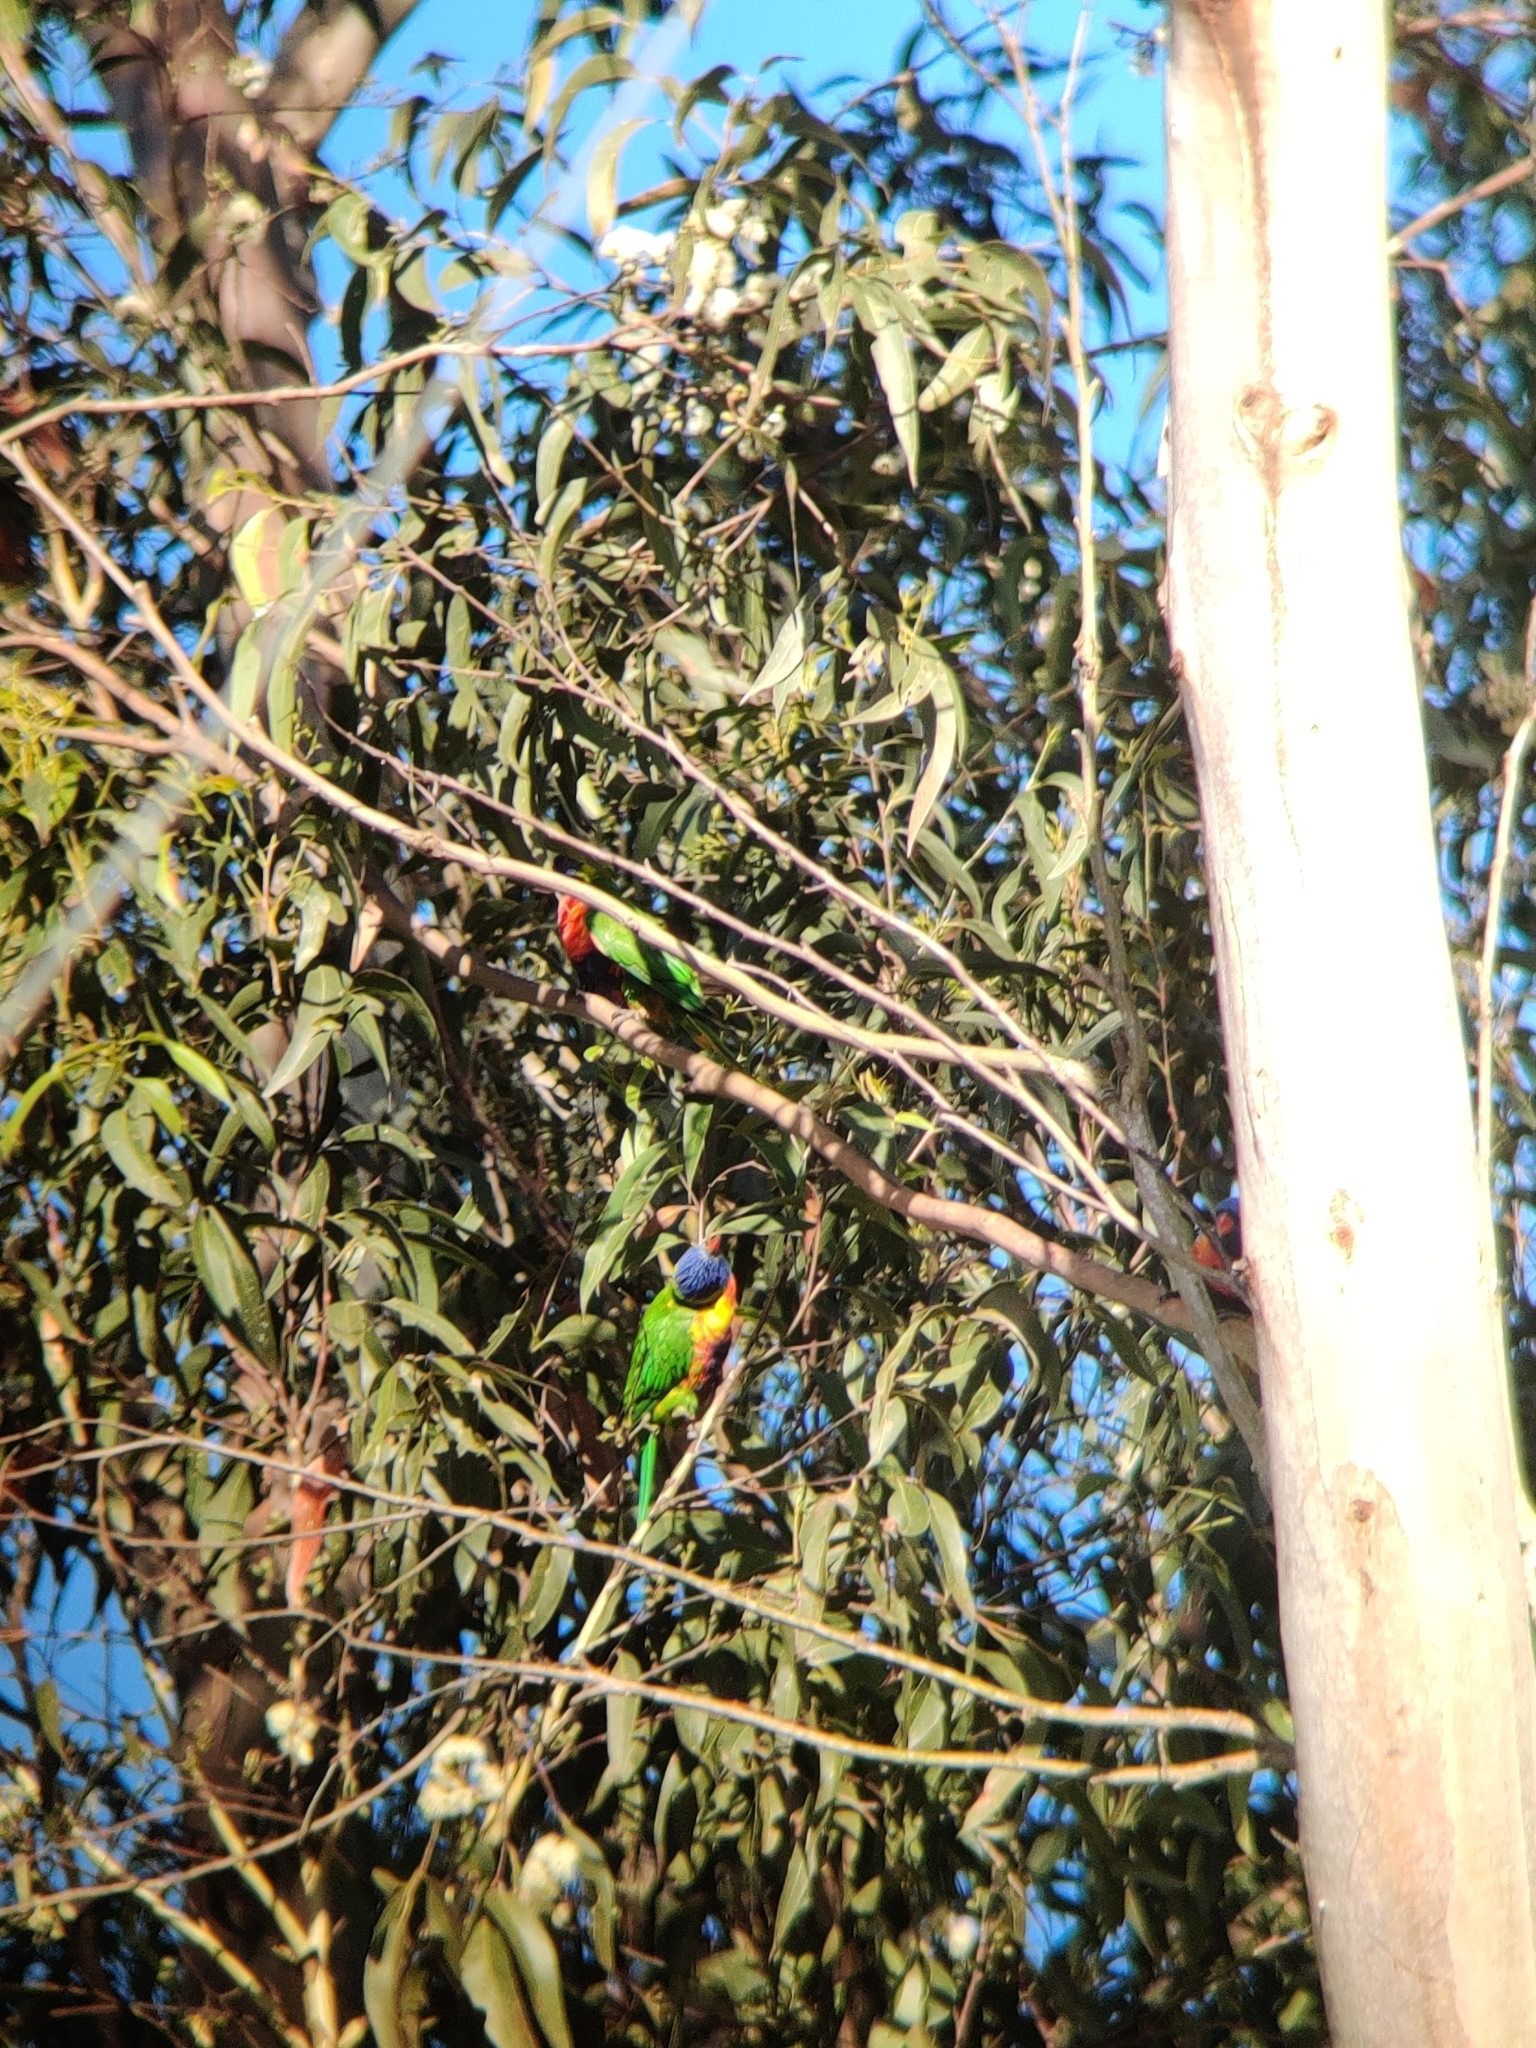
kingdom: Animalia
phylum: Chordata
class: Aves
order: Psittaciformes
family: Psittacidae
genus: Trichoglossus
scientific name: Trichoglossus haematodus
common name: Coconut lorikeet
